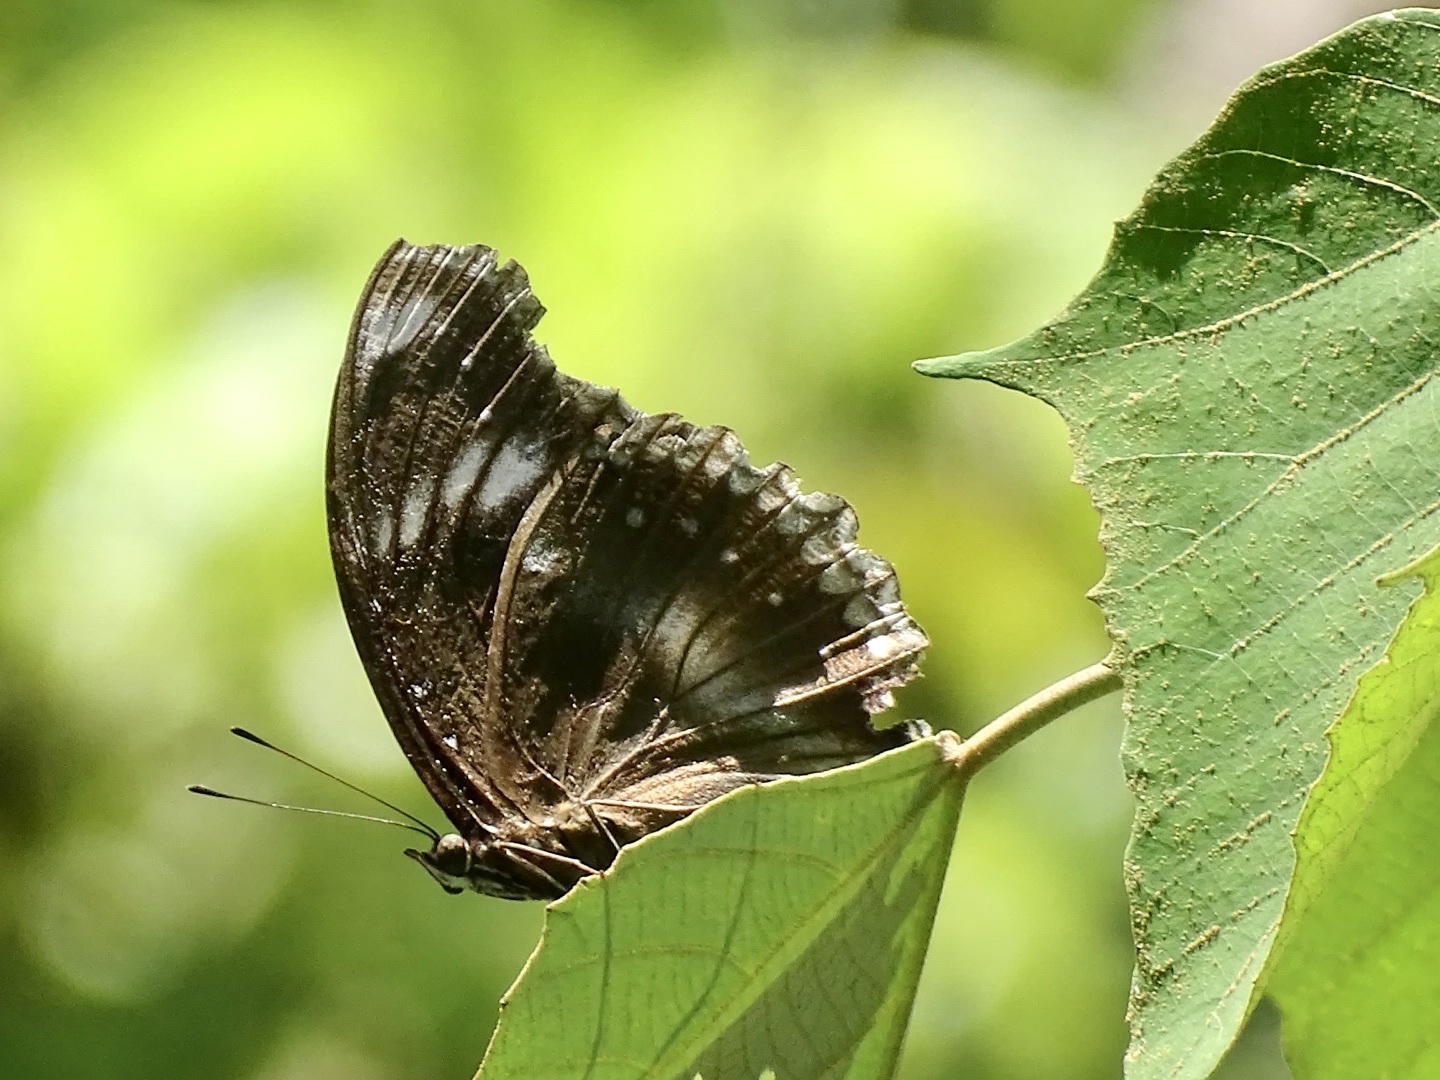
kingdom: Animalia
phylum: Arthropoda
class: Insecta
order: Lepidoptera
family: Nymphalidae
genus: Hypolimnas
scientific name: Hypolimnas bolina
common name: Great eggfly
